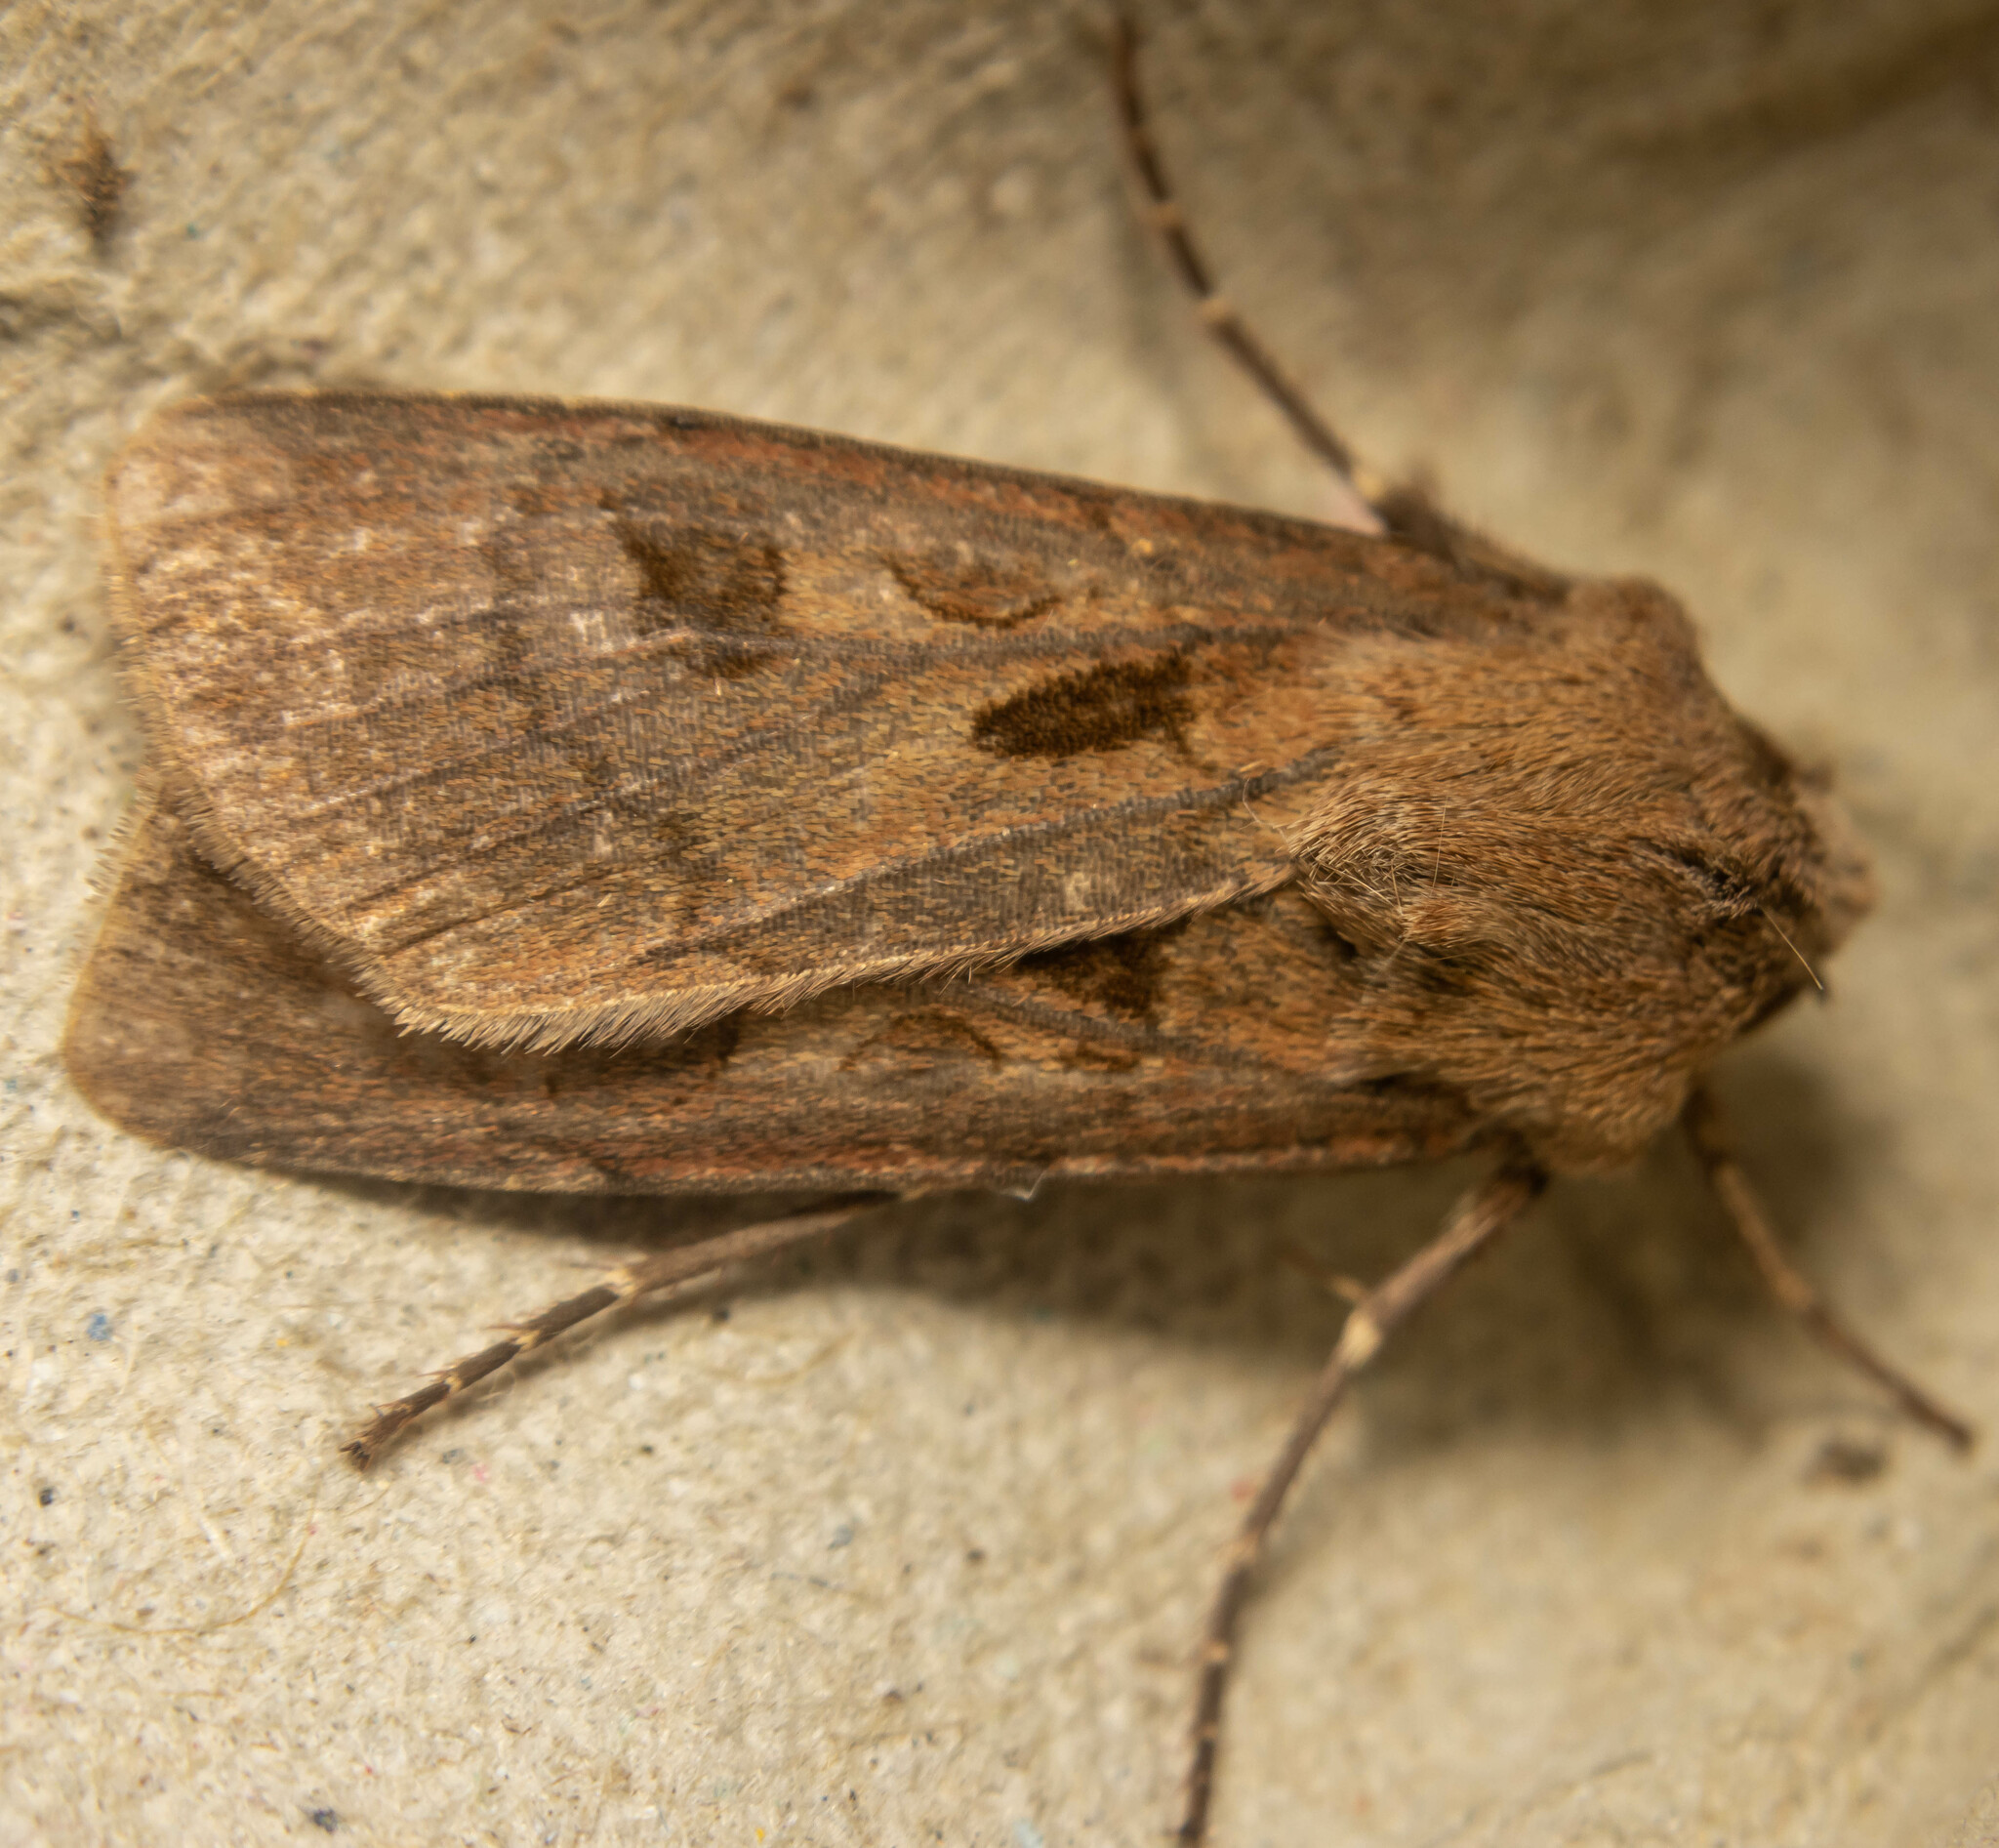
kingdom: Animalia
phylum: Arthropoda
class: Insecta
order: Lepidoptera
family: Noctuidae
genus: Agrotis
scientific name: Agrotis exclamationis
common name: Heart and dart
